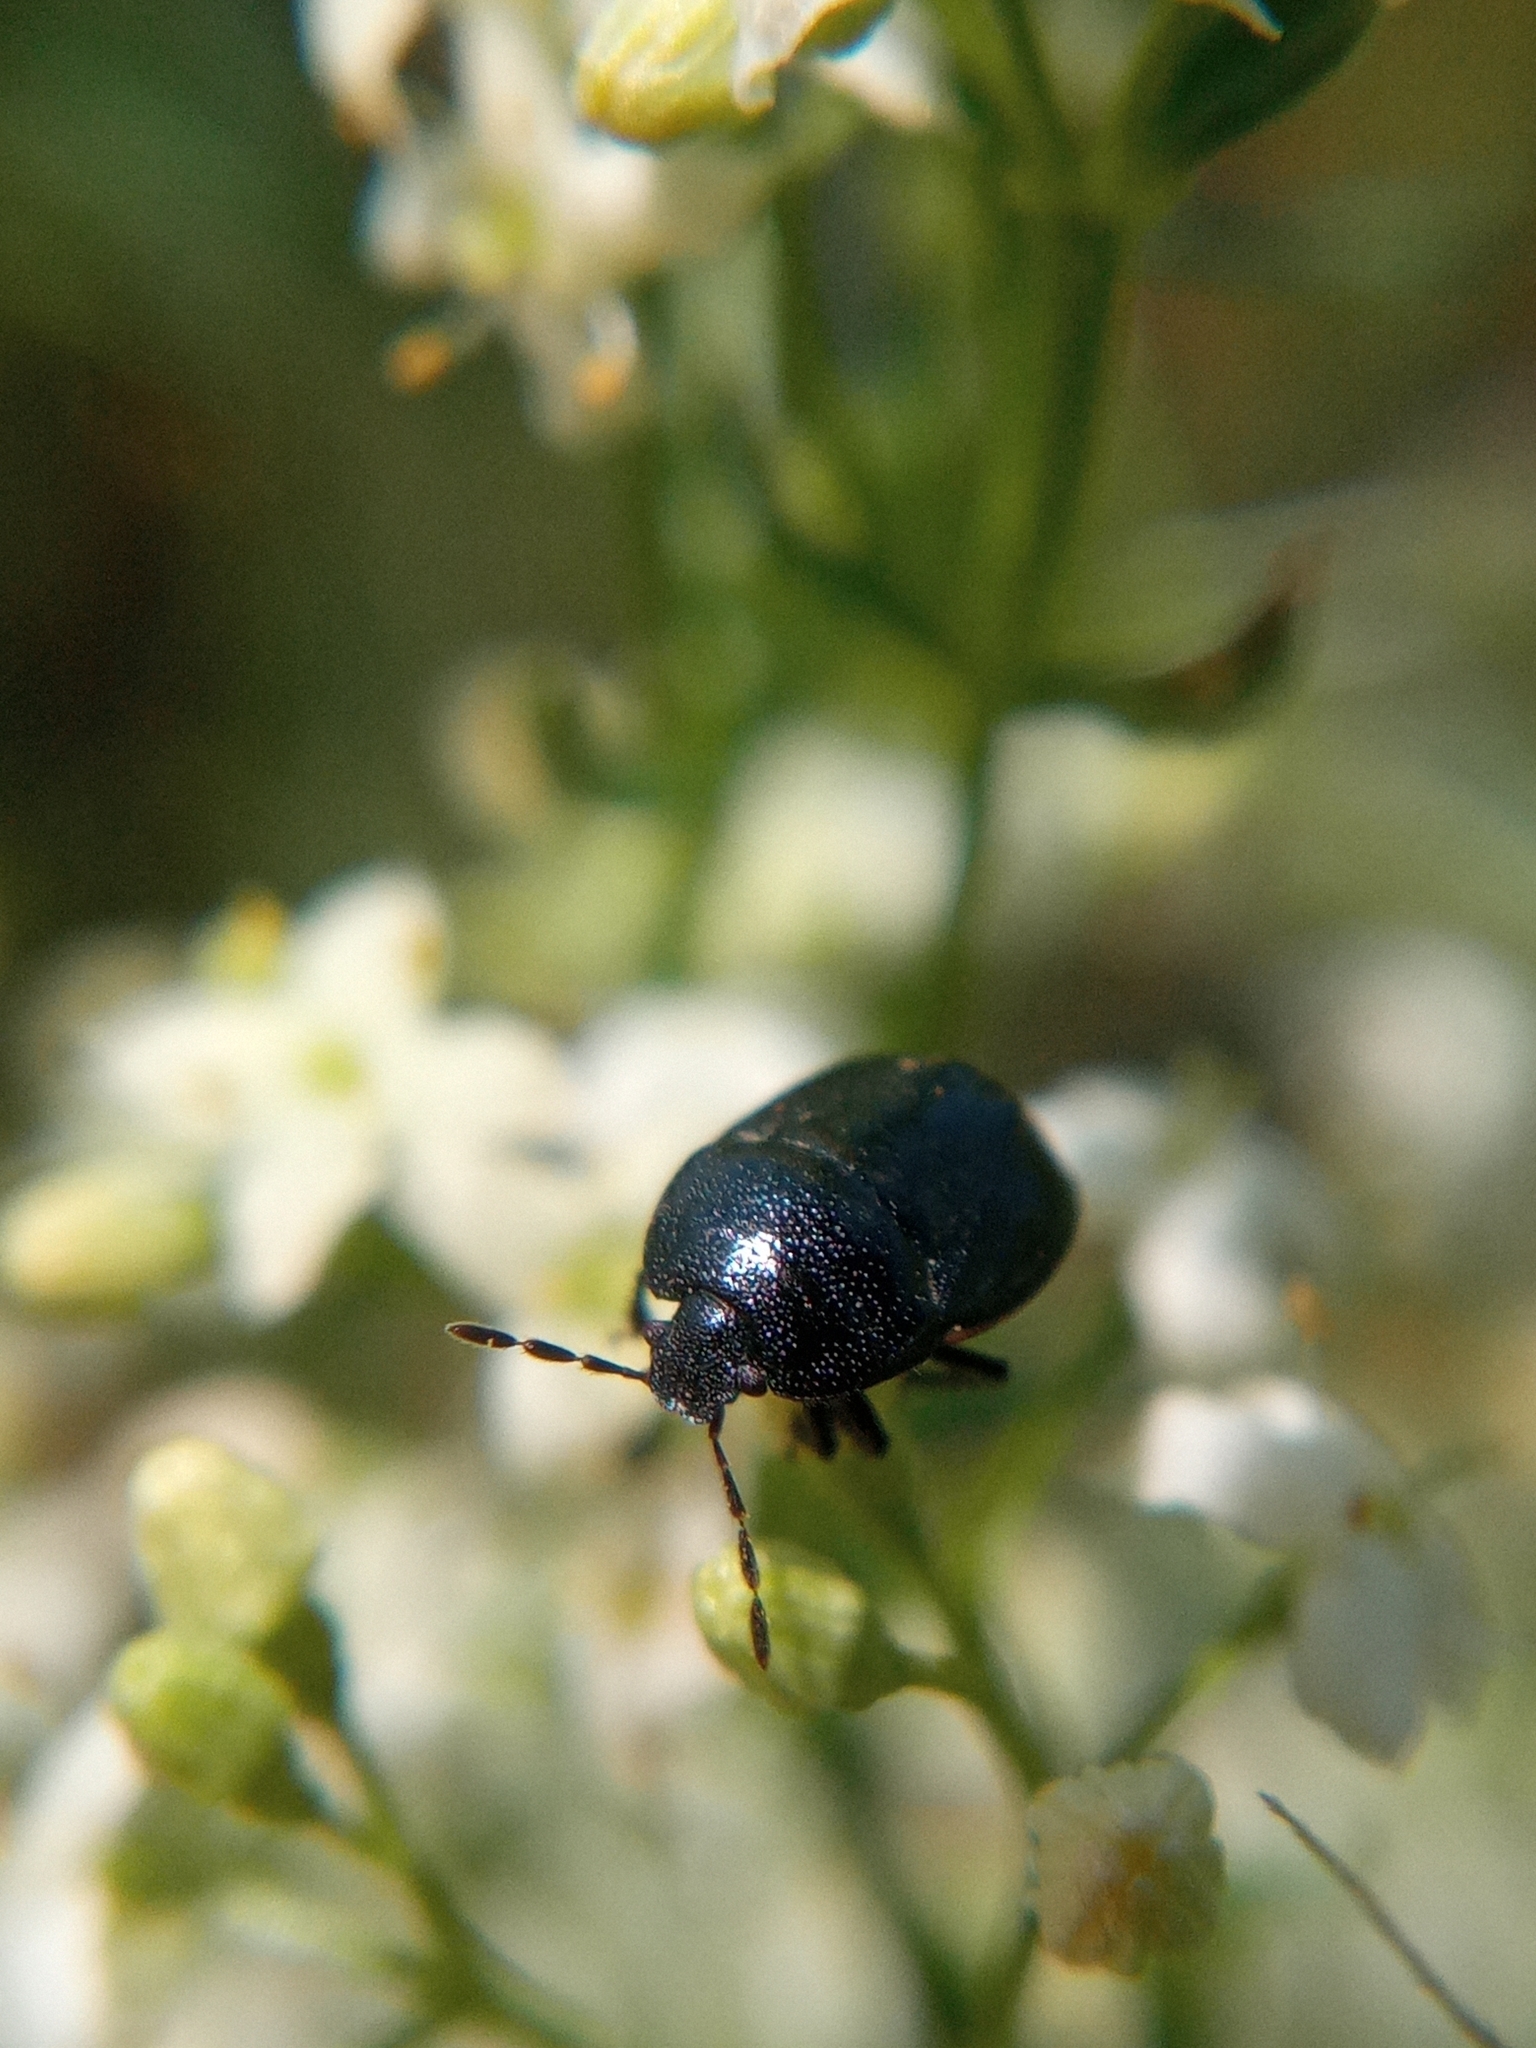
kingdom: Animalia
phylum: Arthropoda
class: Insecta
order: Hemiptera
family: Cydnidae
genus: Legnotus
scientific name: Legnotus picipes
